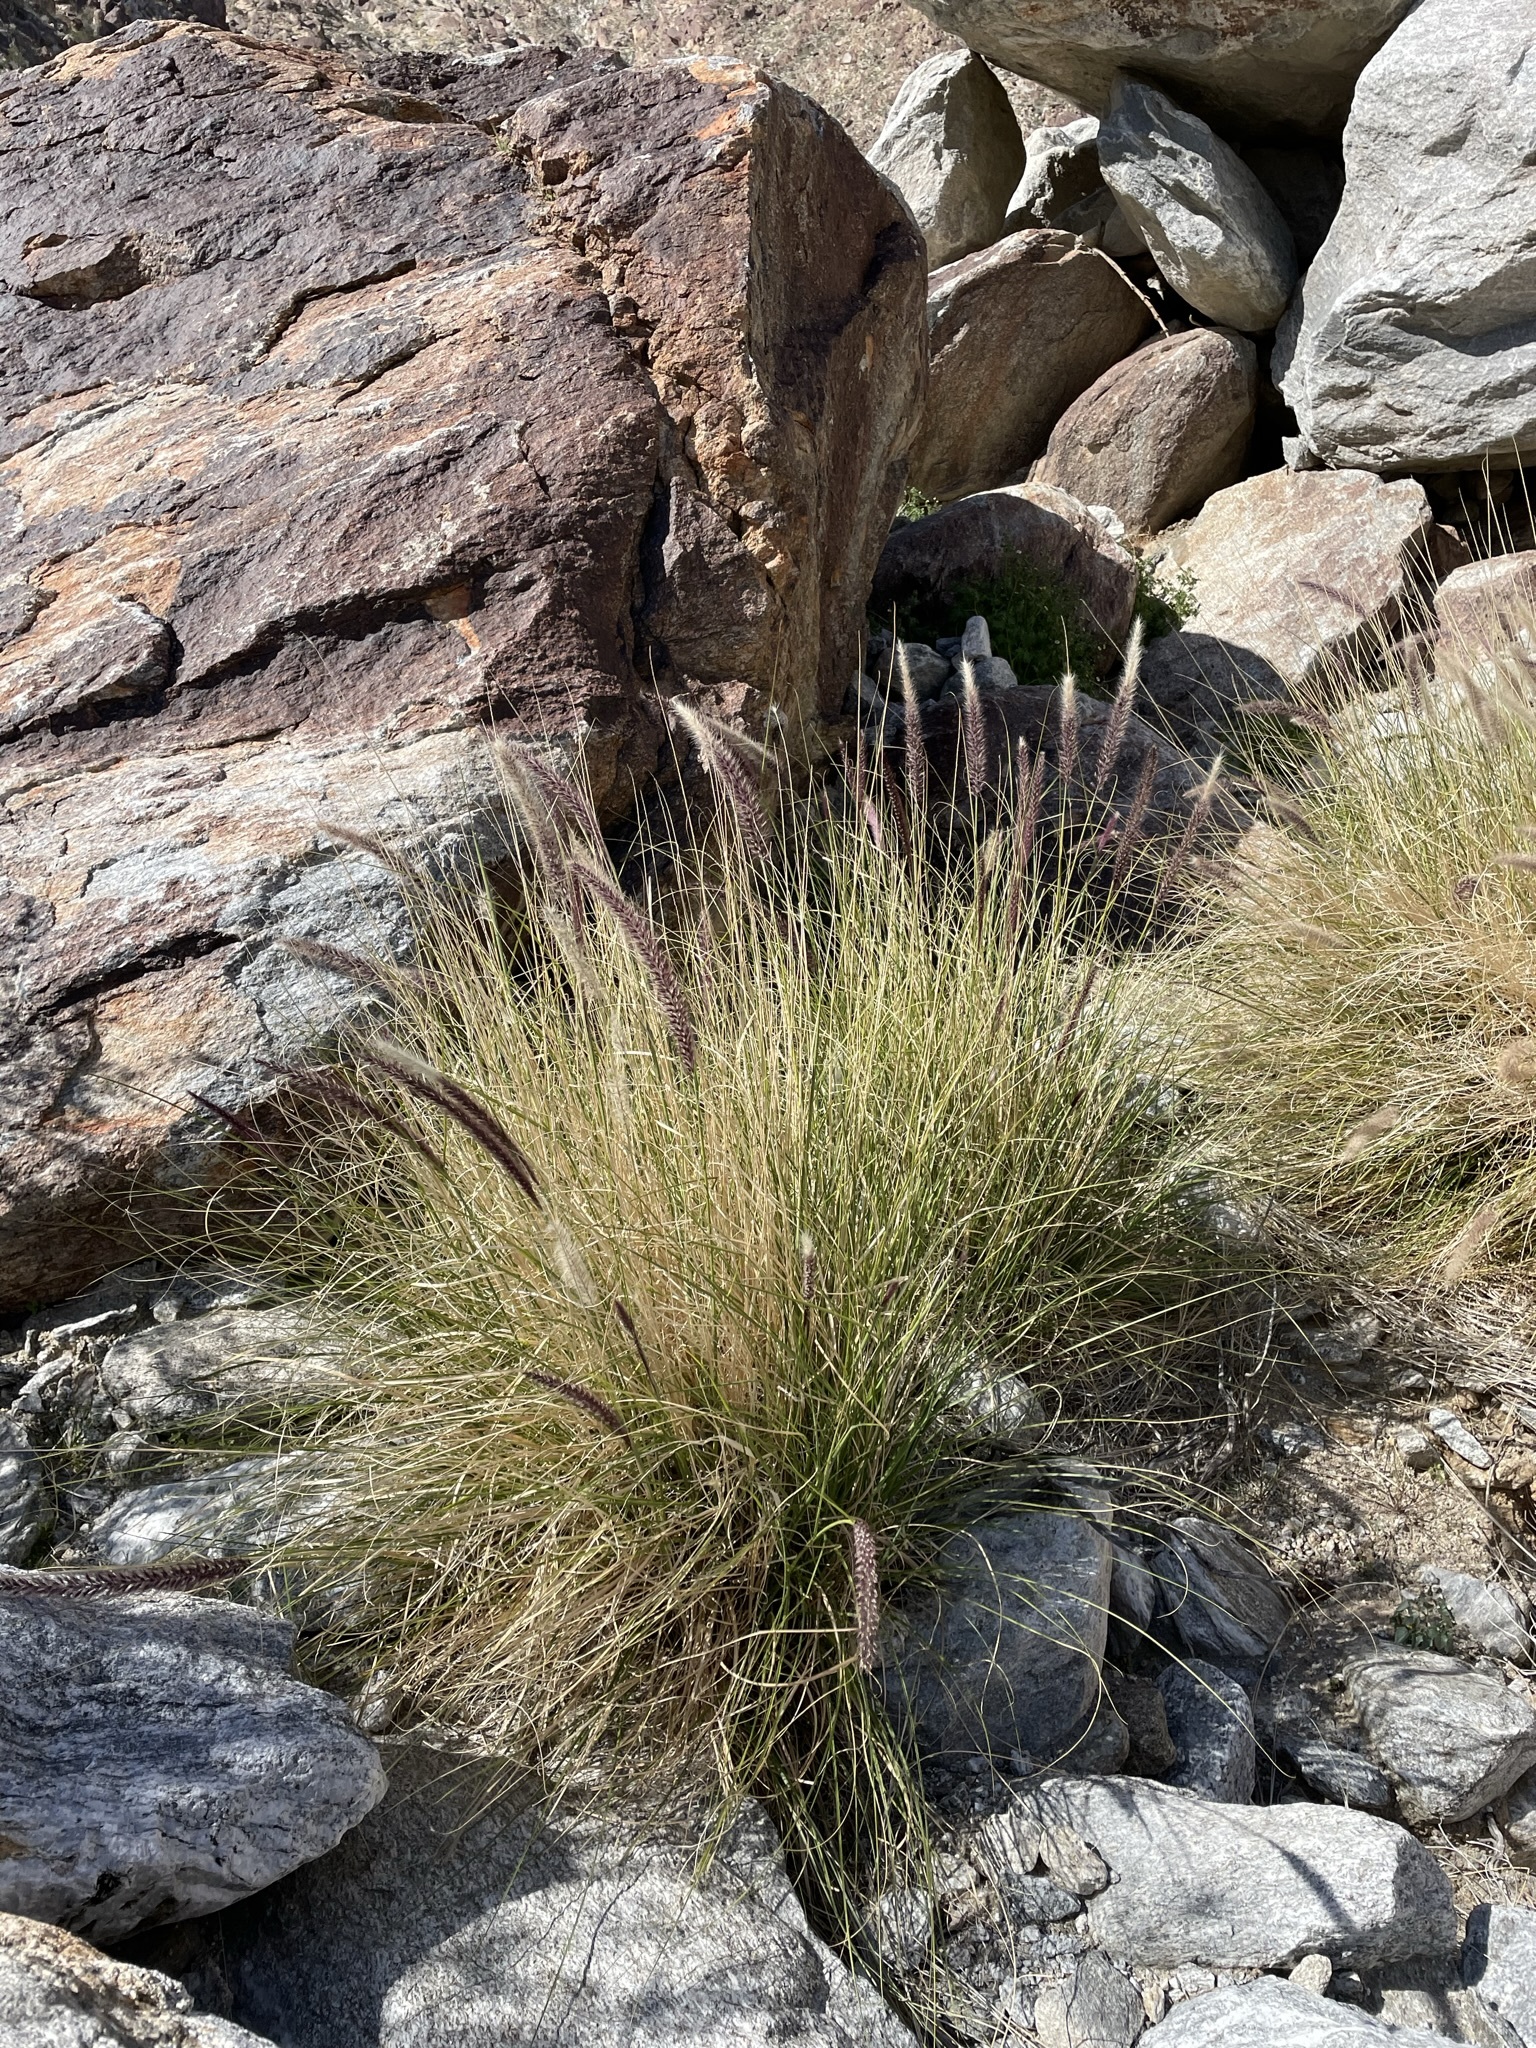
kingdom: Plantae
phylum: Tracheophyta
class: Liliopsida
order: Poales
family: Poaceae
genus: Cenchrus
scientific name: Cenchrus setaceus
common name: Crimson fountaingrass
